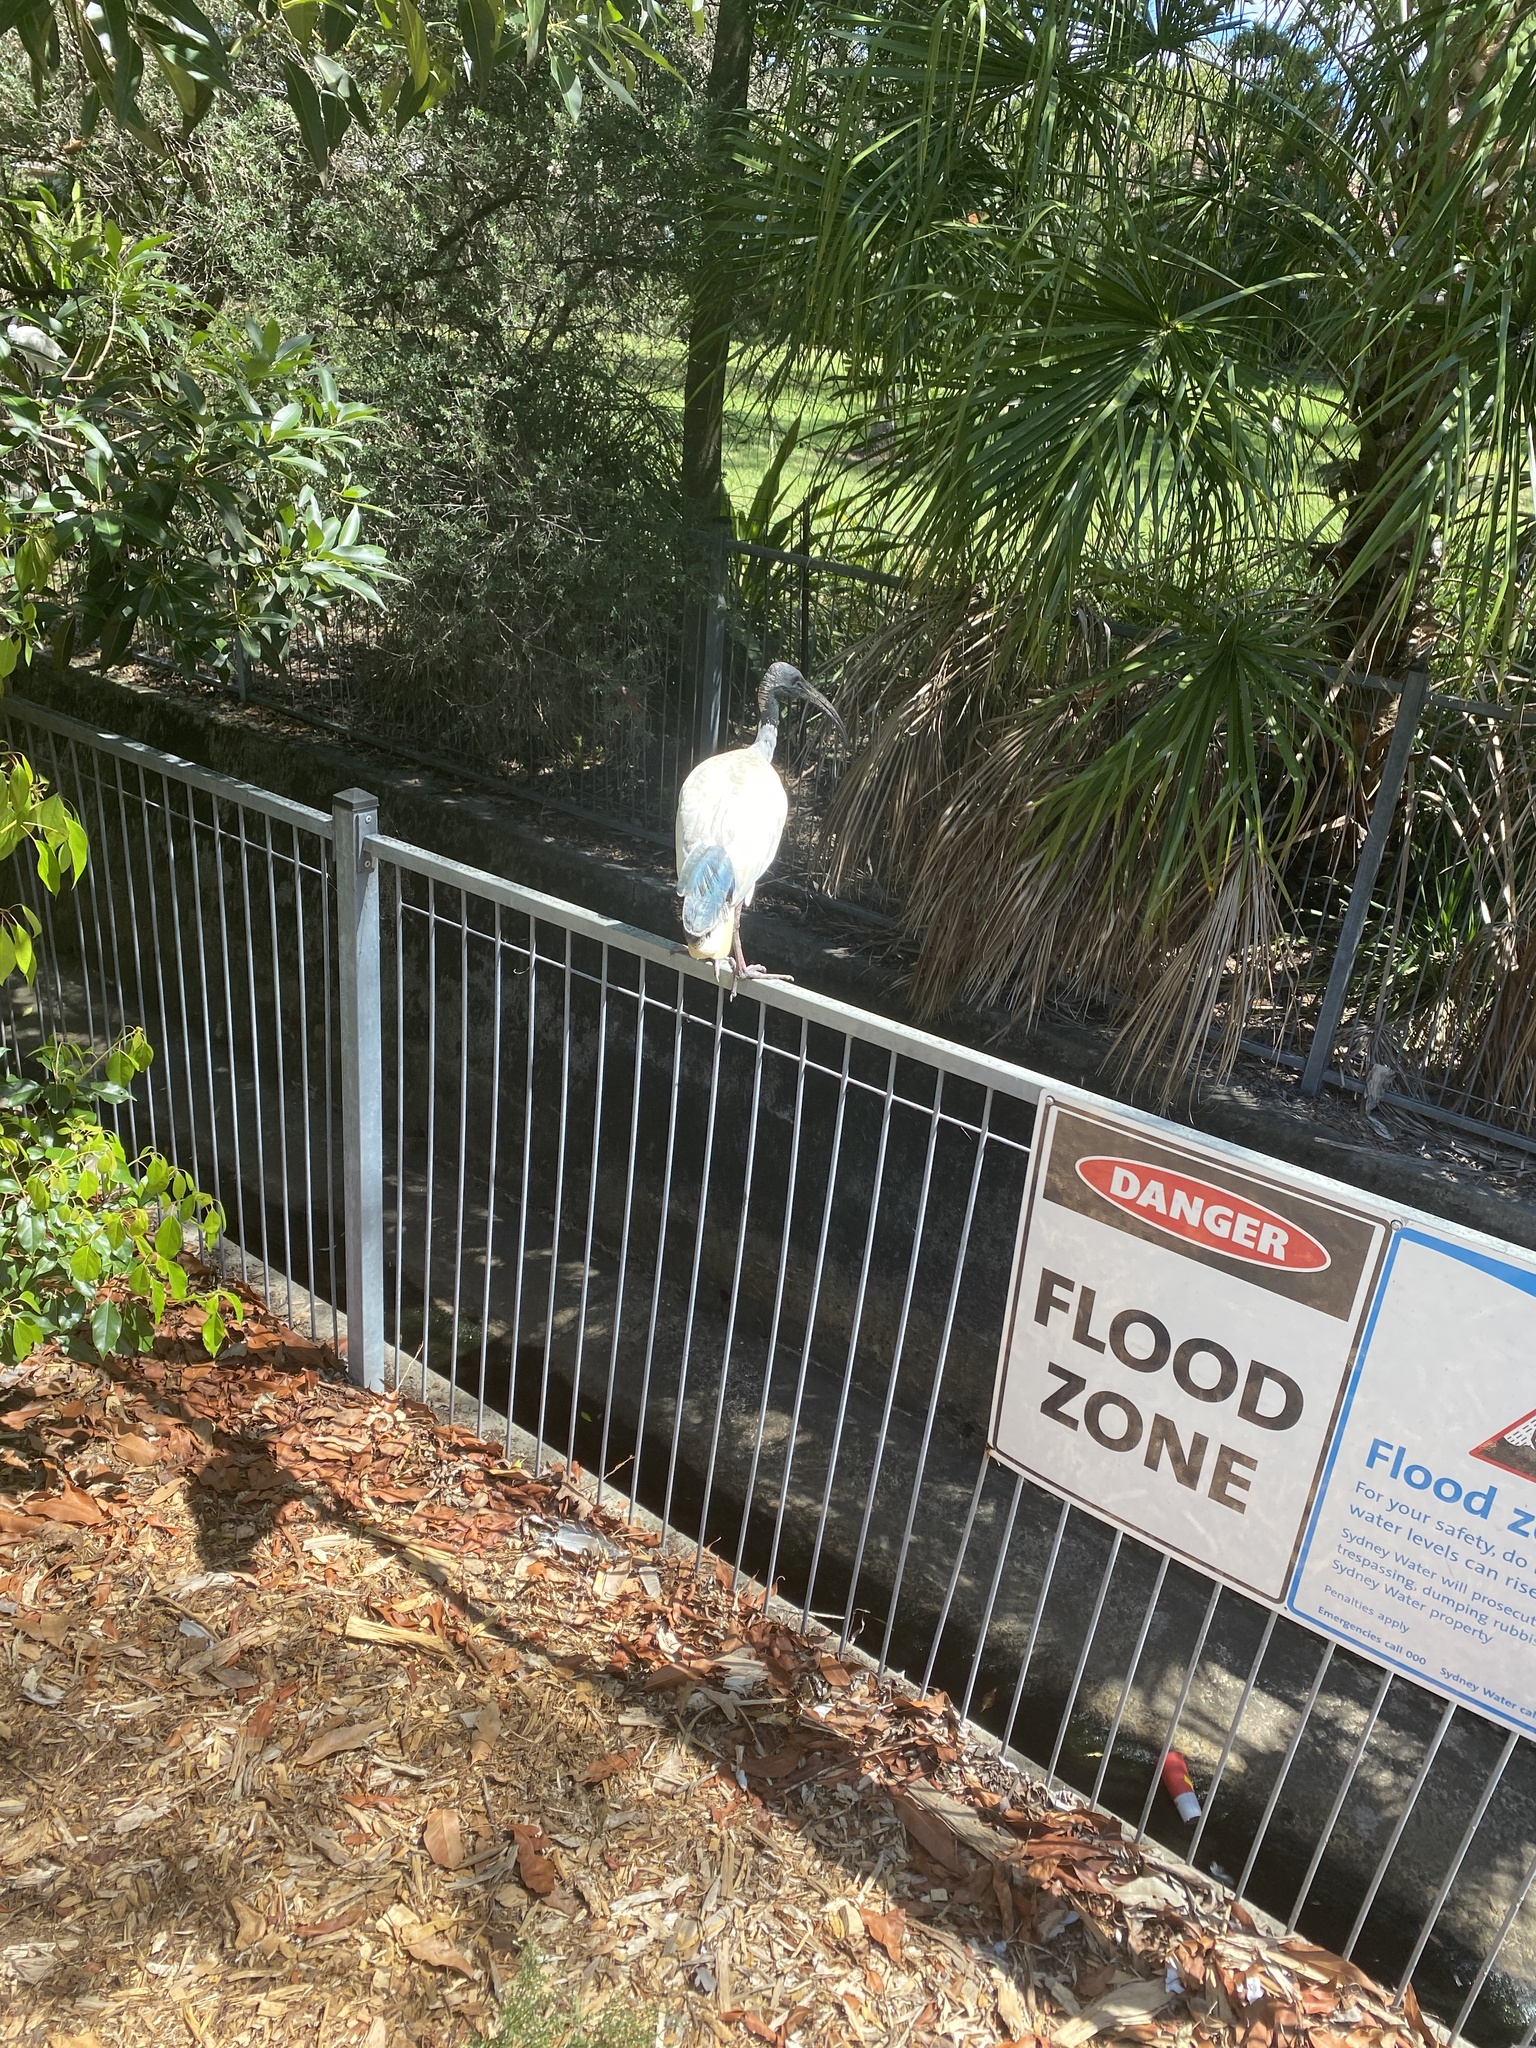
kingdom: Animalia
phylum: Chordata
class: Aves
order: Pelecaniformes
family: Threskiornithidae
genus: Threskiornis
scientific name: Threskiornis molucca
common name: Australian white ibis
